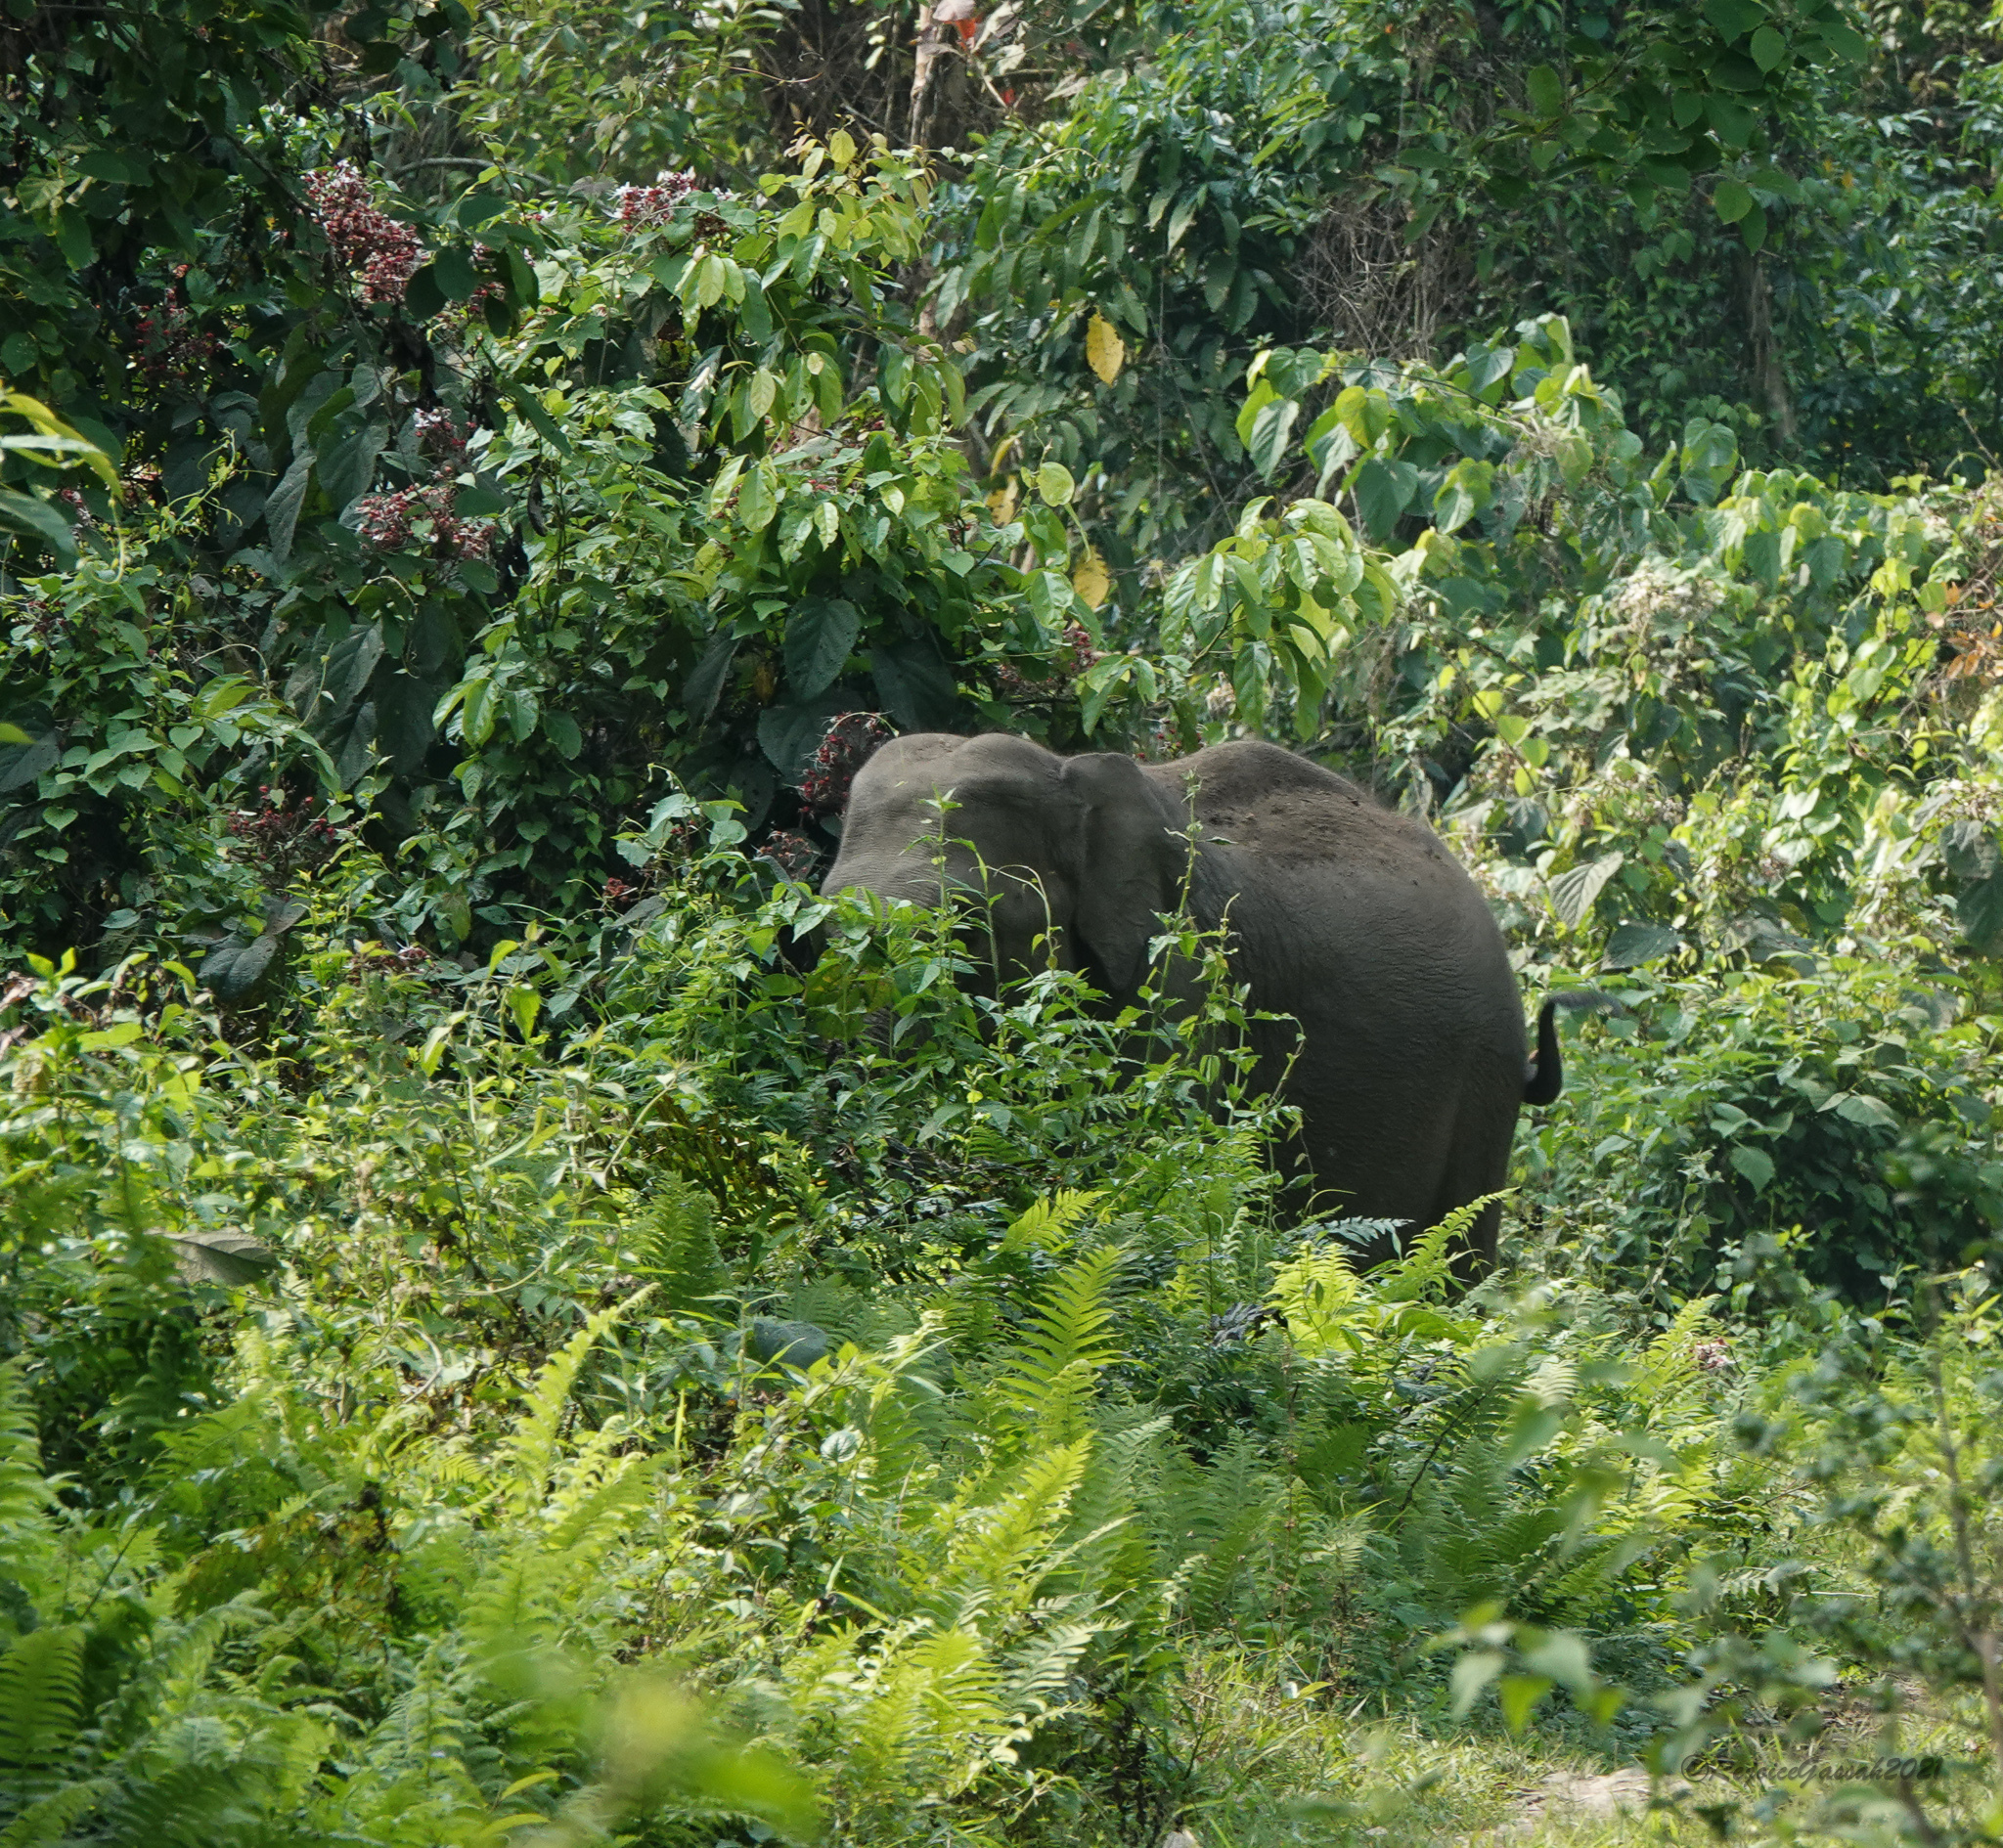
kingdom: Animalia
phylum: Chordata
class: Mammalia
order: Proboscidea
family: Elephantidae
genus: Elephas
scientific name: Elephas maximus
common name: Asian elephant
